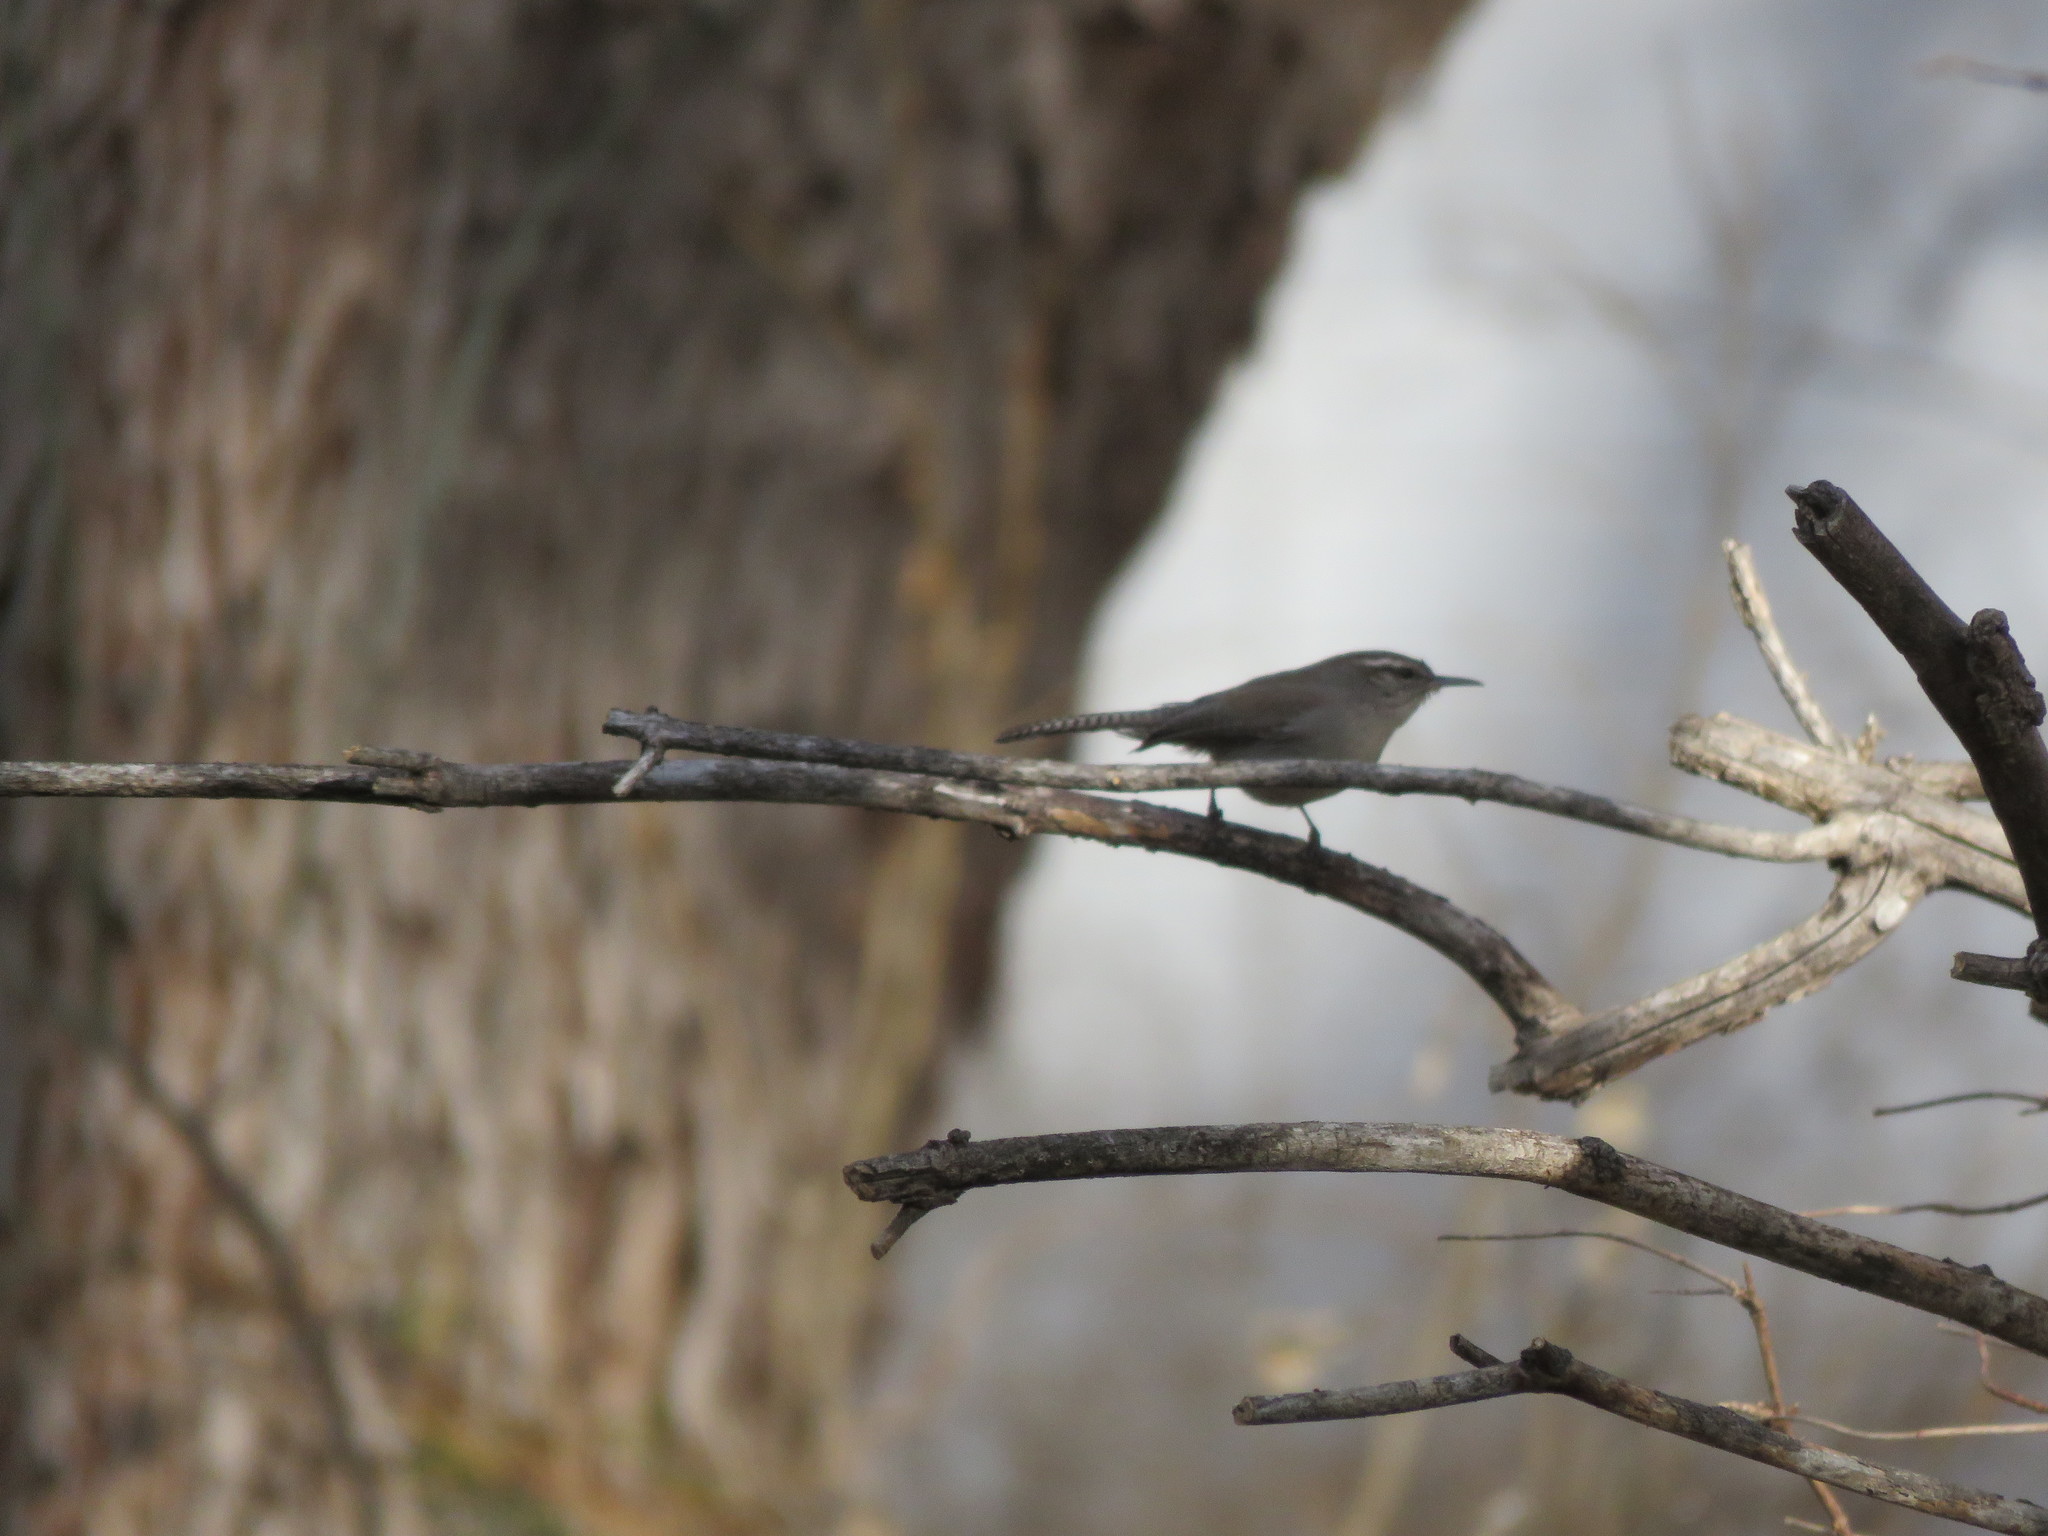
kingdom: Animalia
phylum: Chordata
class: Aves
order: Passeriformes
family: Troglodytidae
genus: Thryomanes
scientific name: Thryomanes bewickii
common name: Bewick's wren
